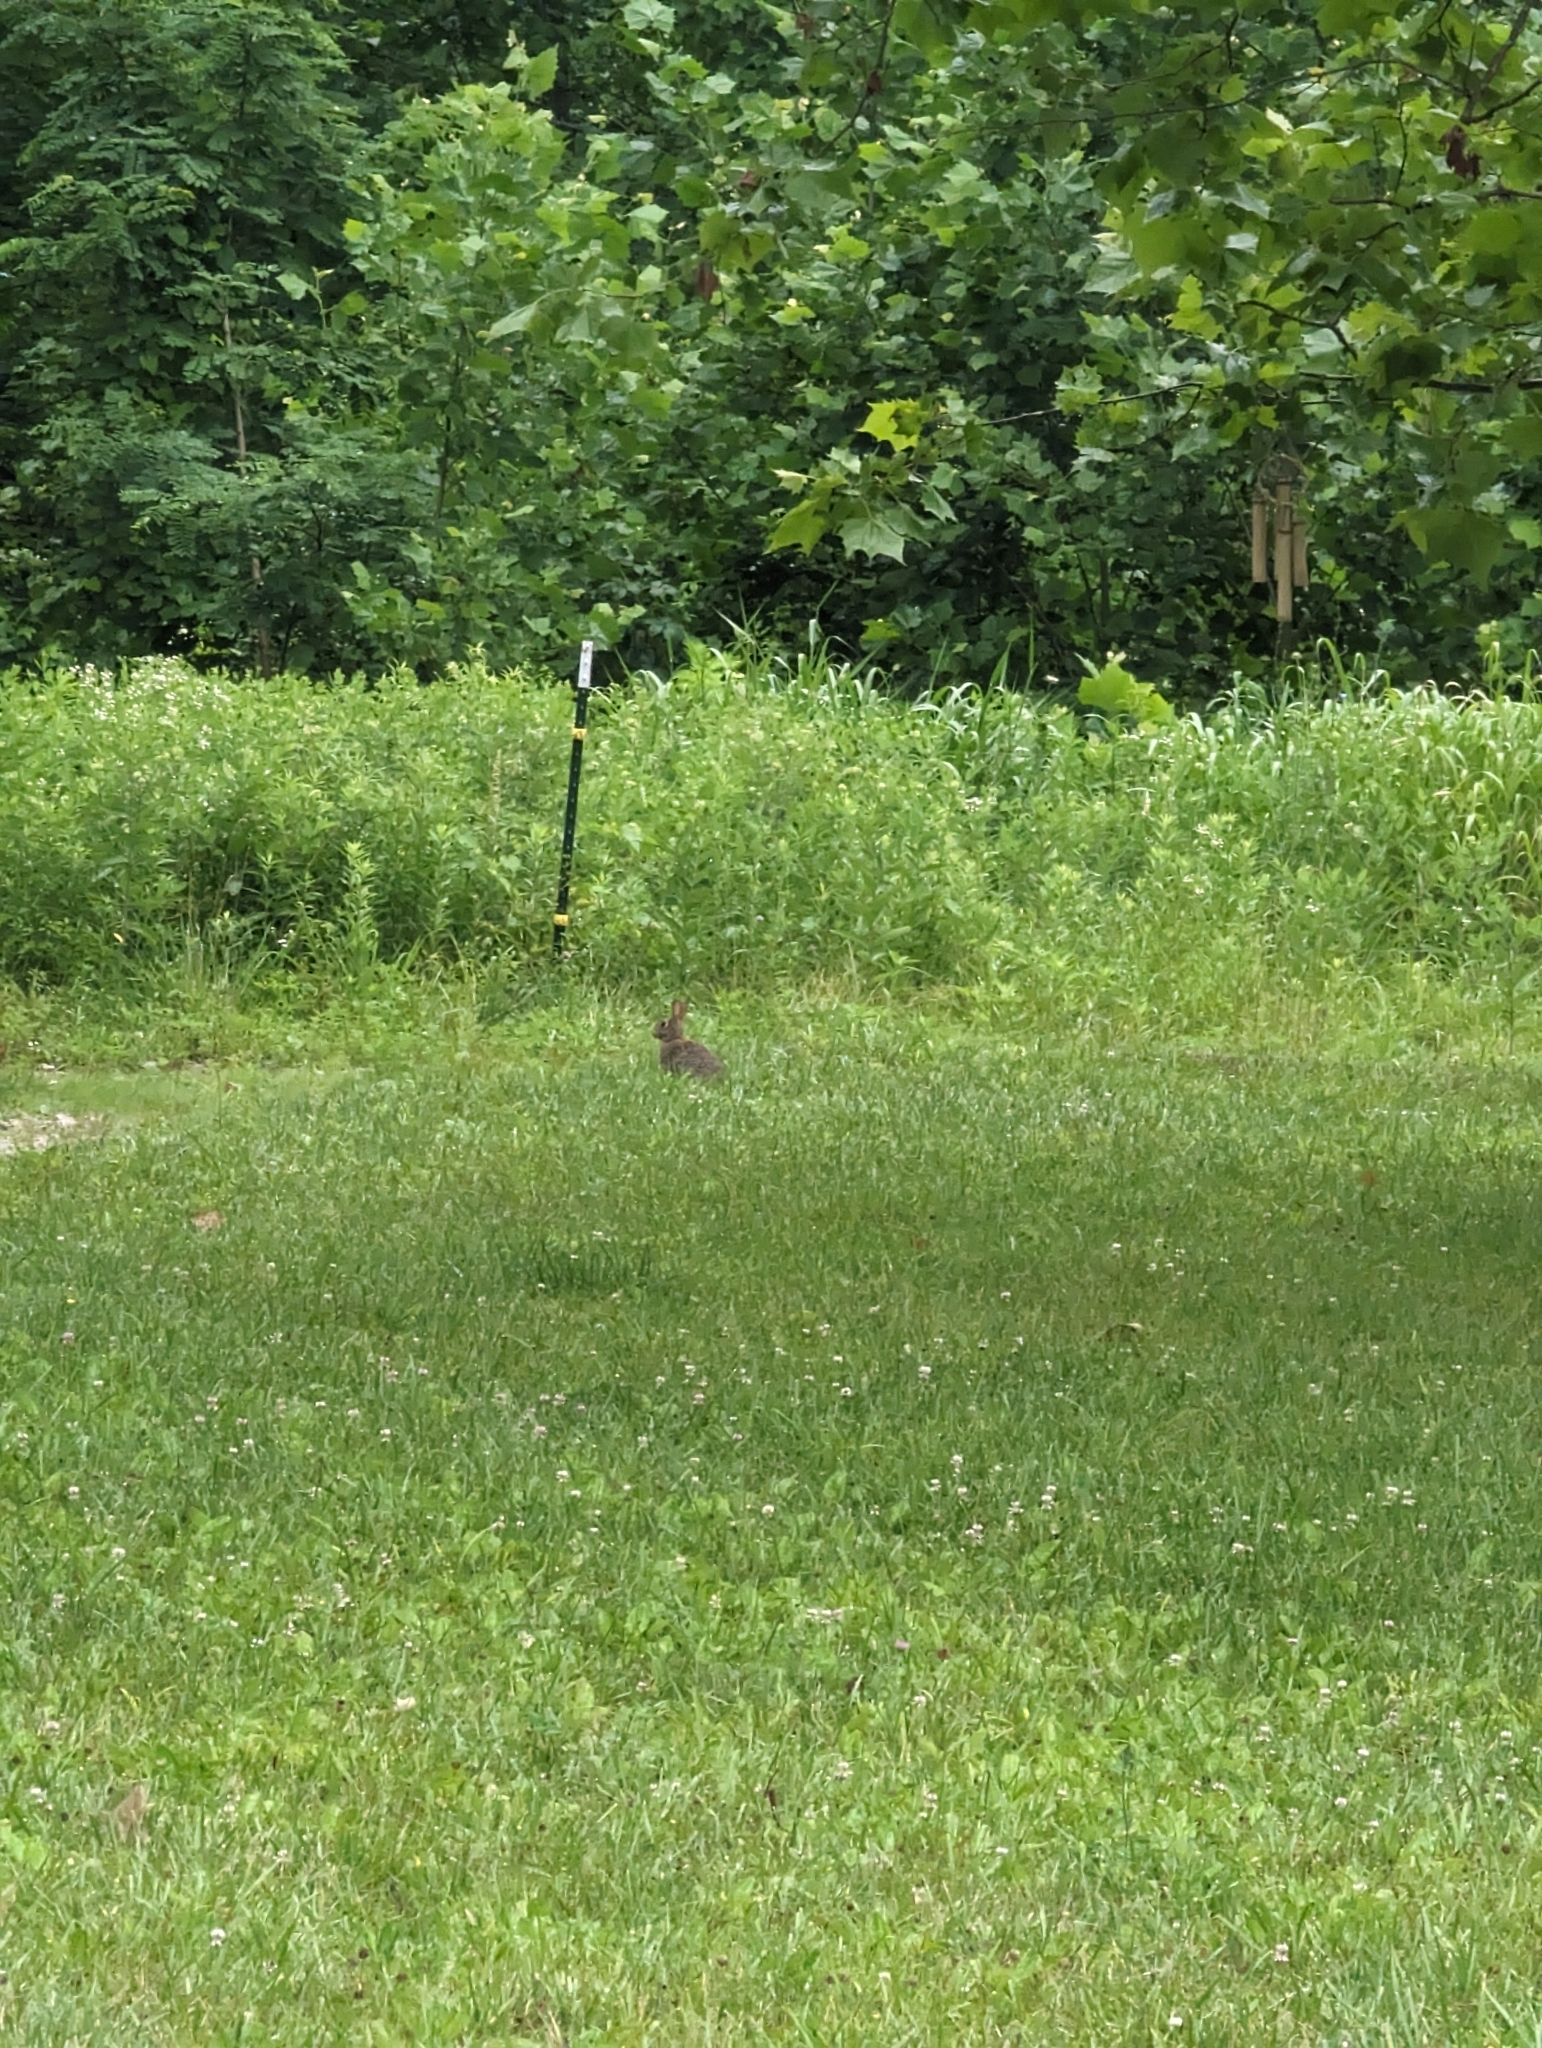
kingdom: Animalia
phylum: Chordata
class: Mammalia
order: Lagomorpha
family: Leporidae
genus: Sylvilagus
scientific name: Sylvilagus floridanus
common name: Eastern cottontail
